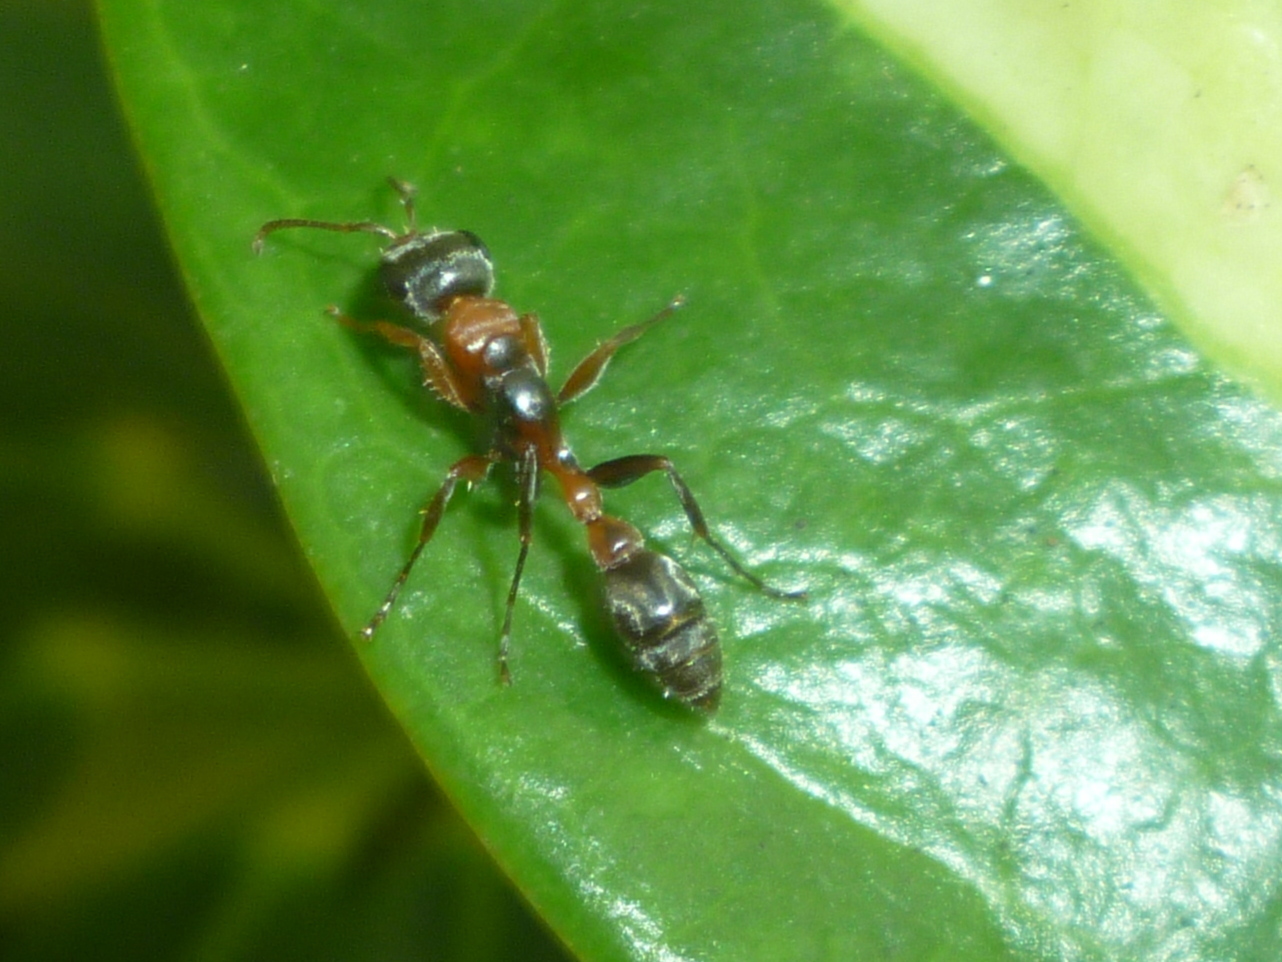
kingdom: Animalia
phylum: Arthropoda
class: Insecta
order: Hymenoptera
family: Formicidae
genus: Pseudomyrmex
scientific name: Pseudomyrmex gracilis
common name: Graceful twig ant
